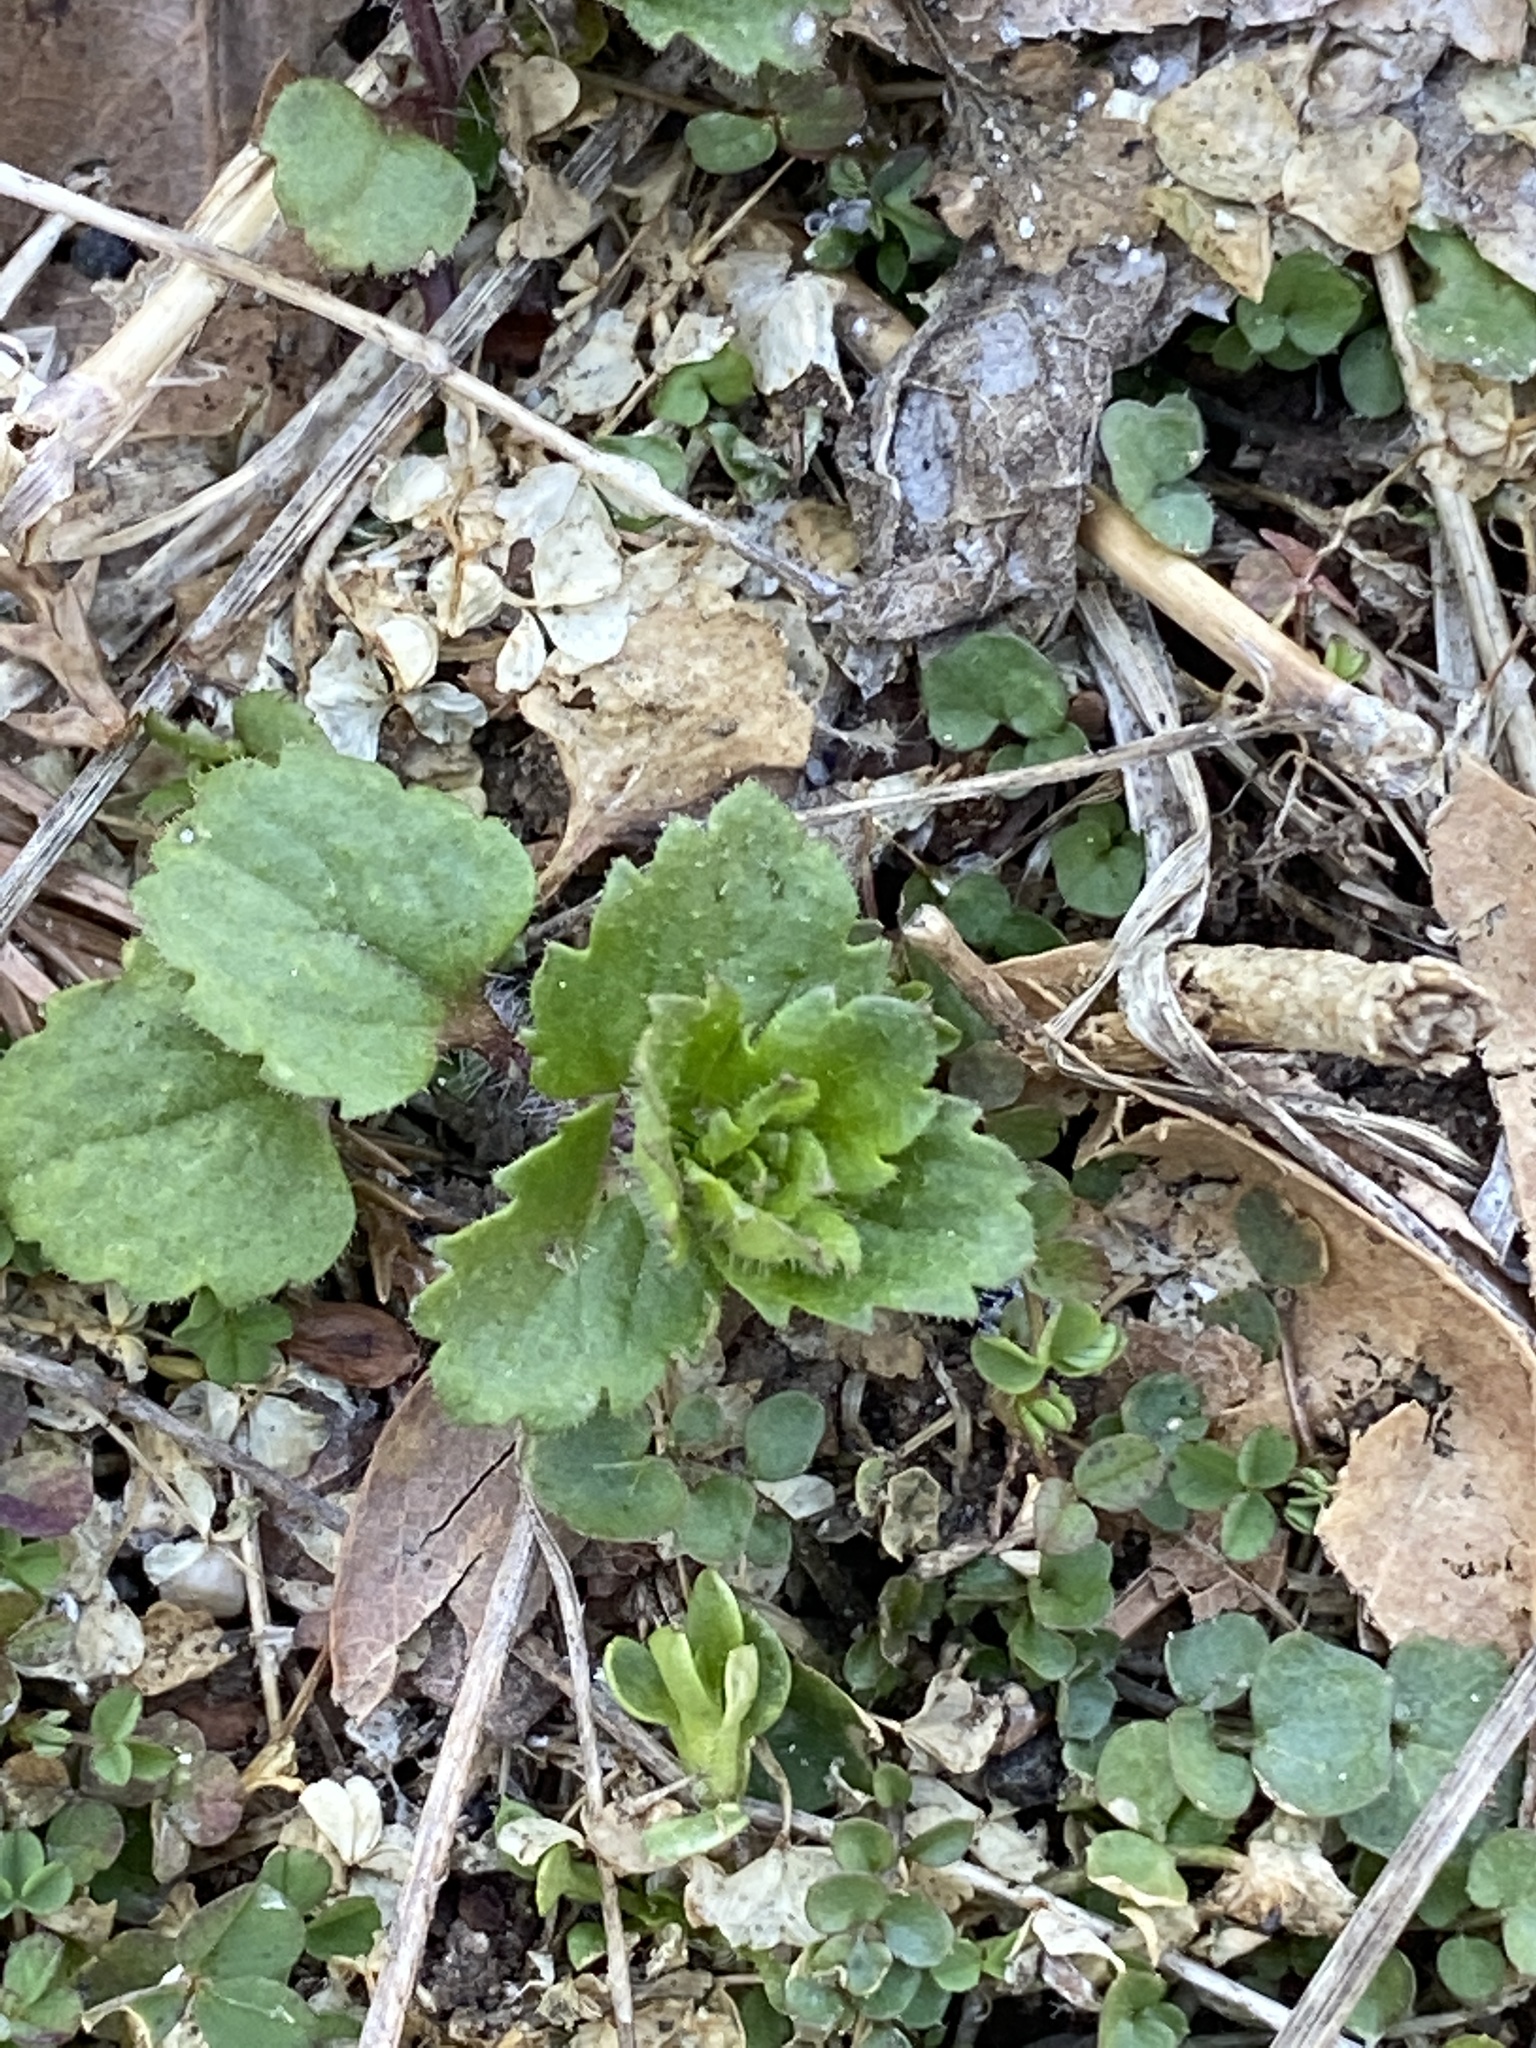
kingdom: Plantae
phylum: Tracheophyta
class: Magnoliopsida
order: Lamiales
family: Plantaginaceae
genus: Veronica
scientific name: Veronica persica
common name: Common field-speedwell
